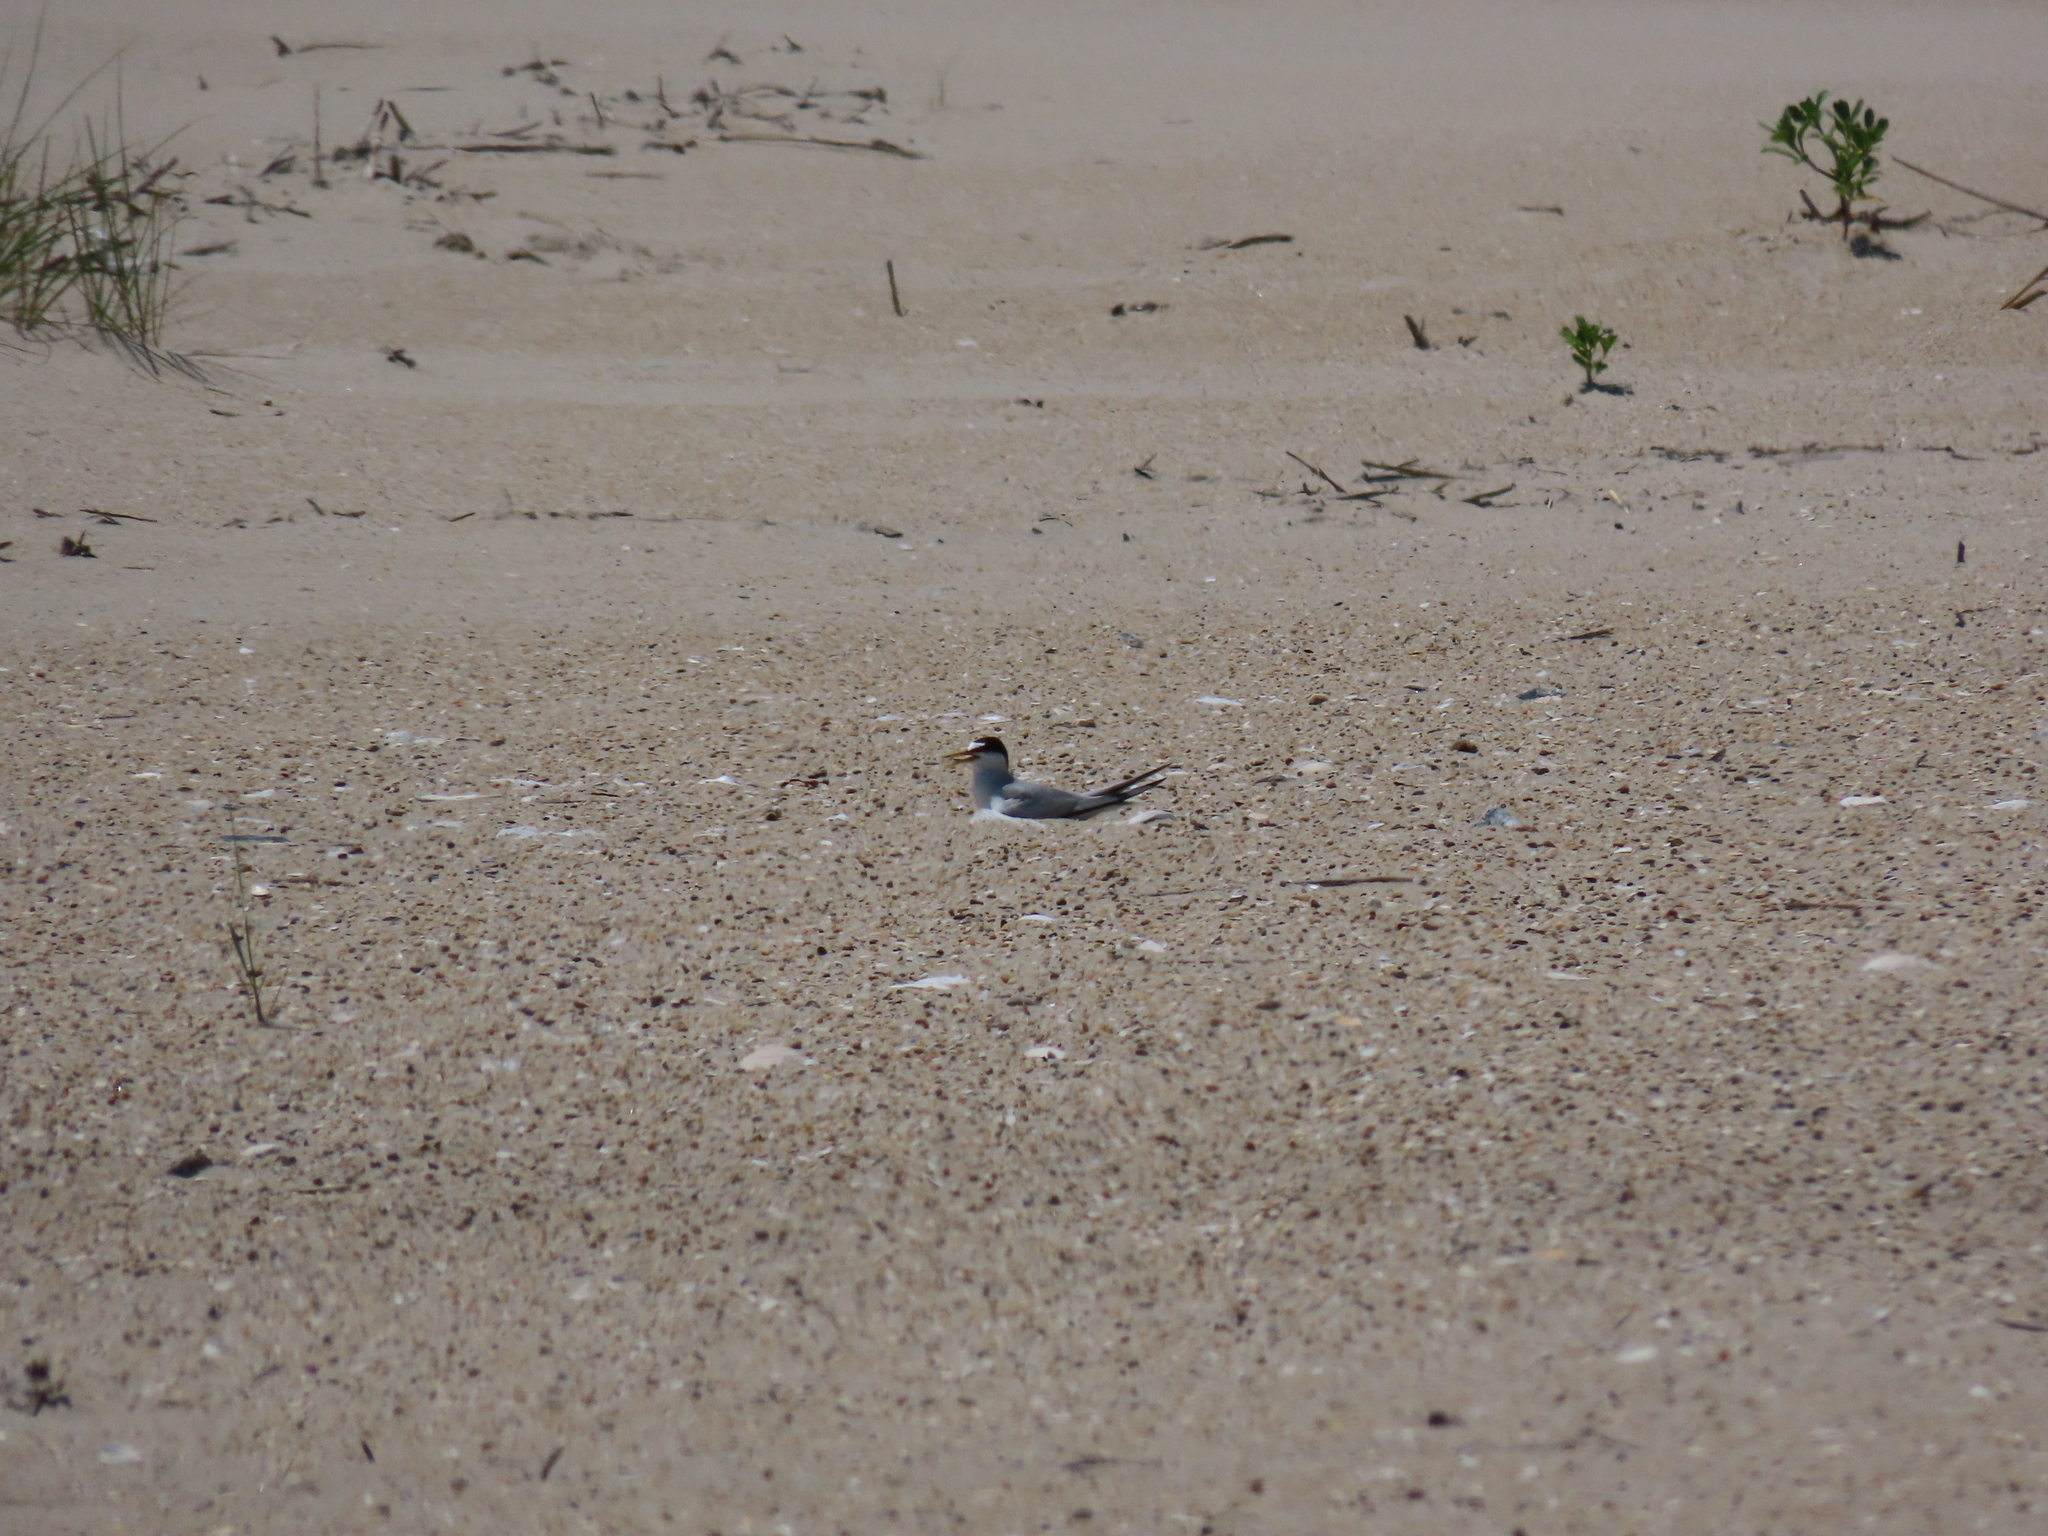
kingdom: Animalia
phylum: Chordata
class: Aves
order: Charadriiformes
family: Laridae
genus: Sternula
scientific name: Sternula antillarum
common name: Least tern
